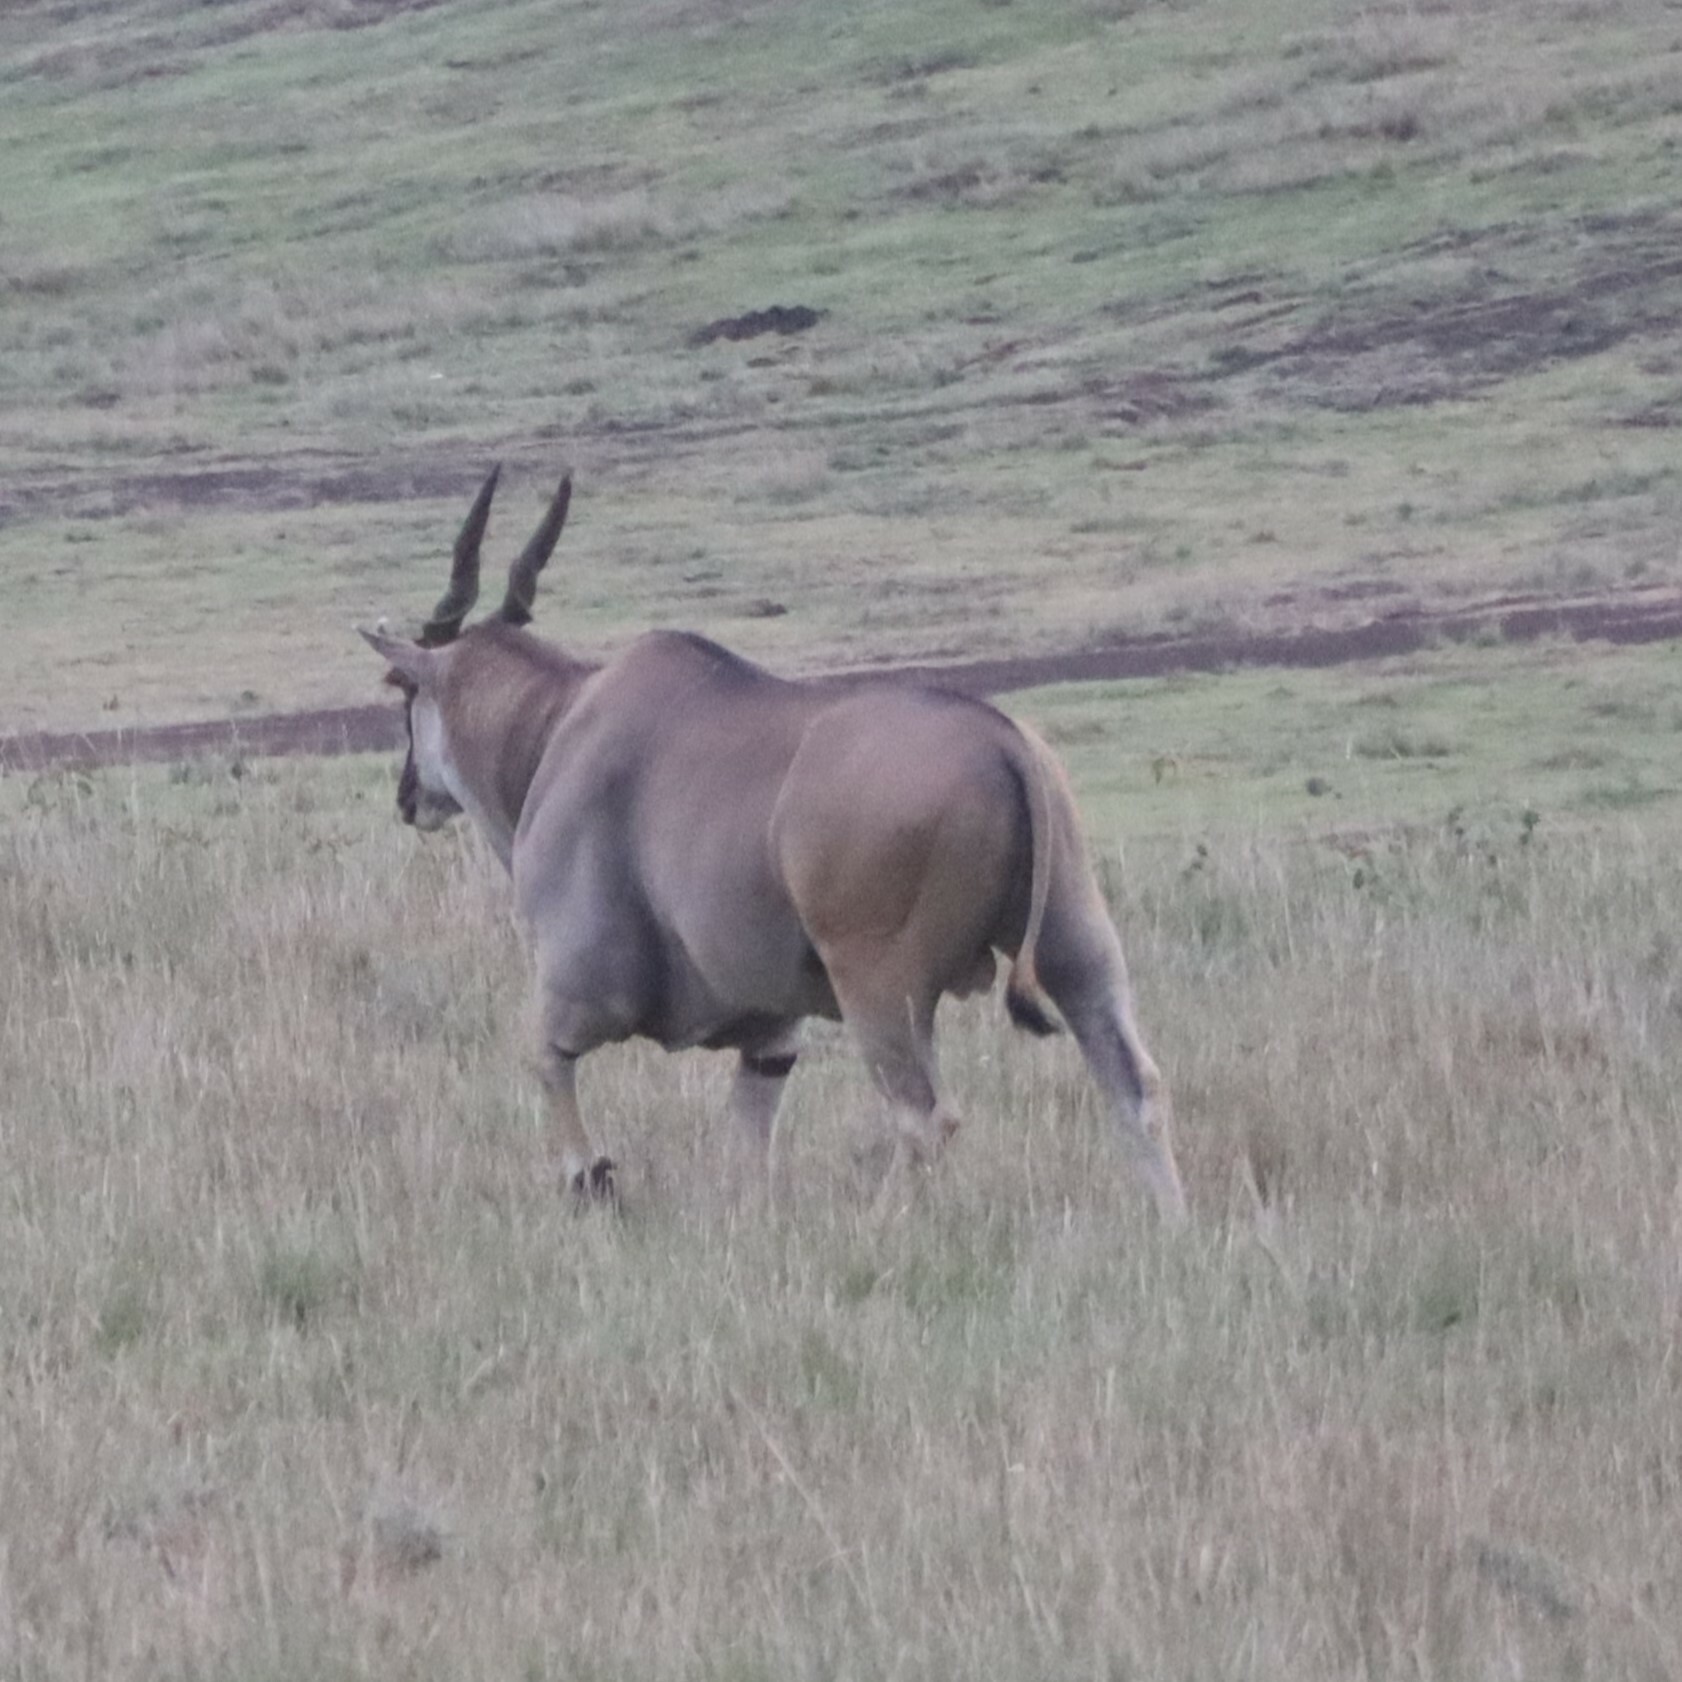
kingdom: Animalia
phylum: Chordata
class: Mammalia
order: Artiodactyla
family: Bovidae
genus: Taurotragus
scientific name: Taurotragus oryx
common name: Common eland
